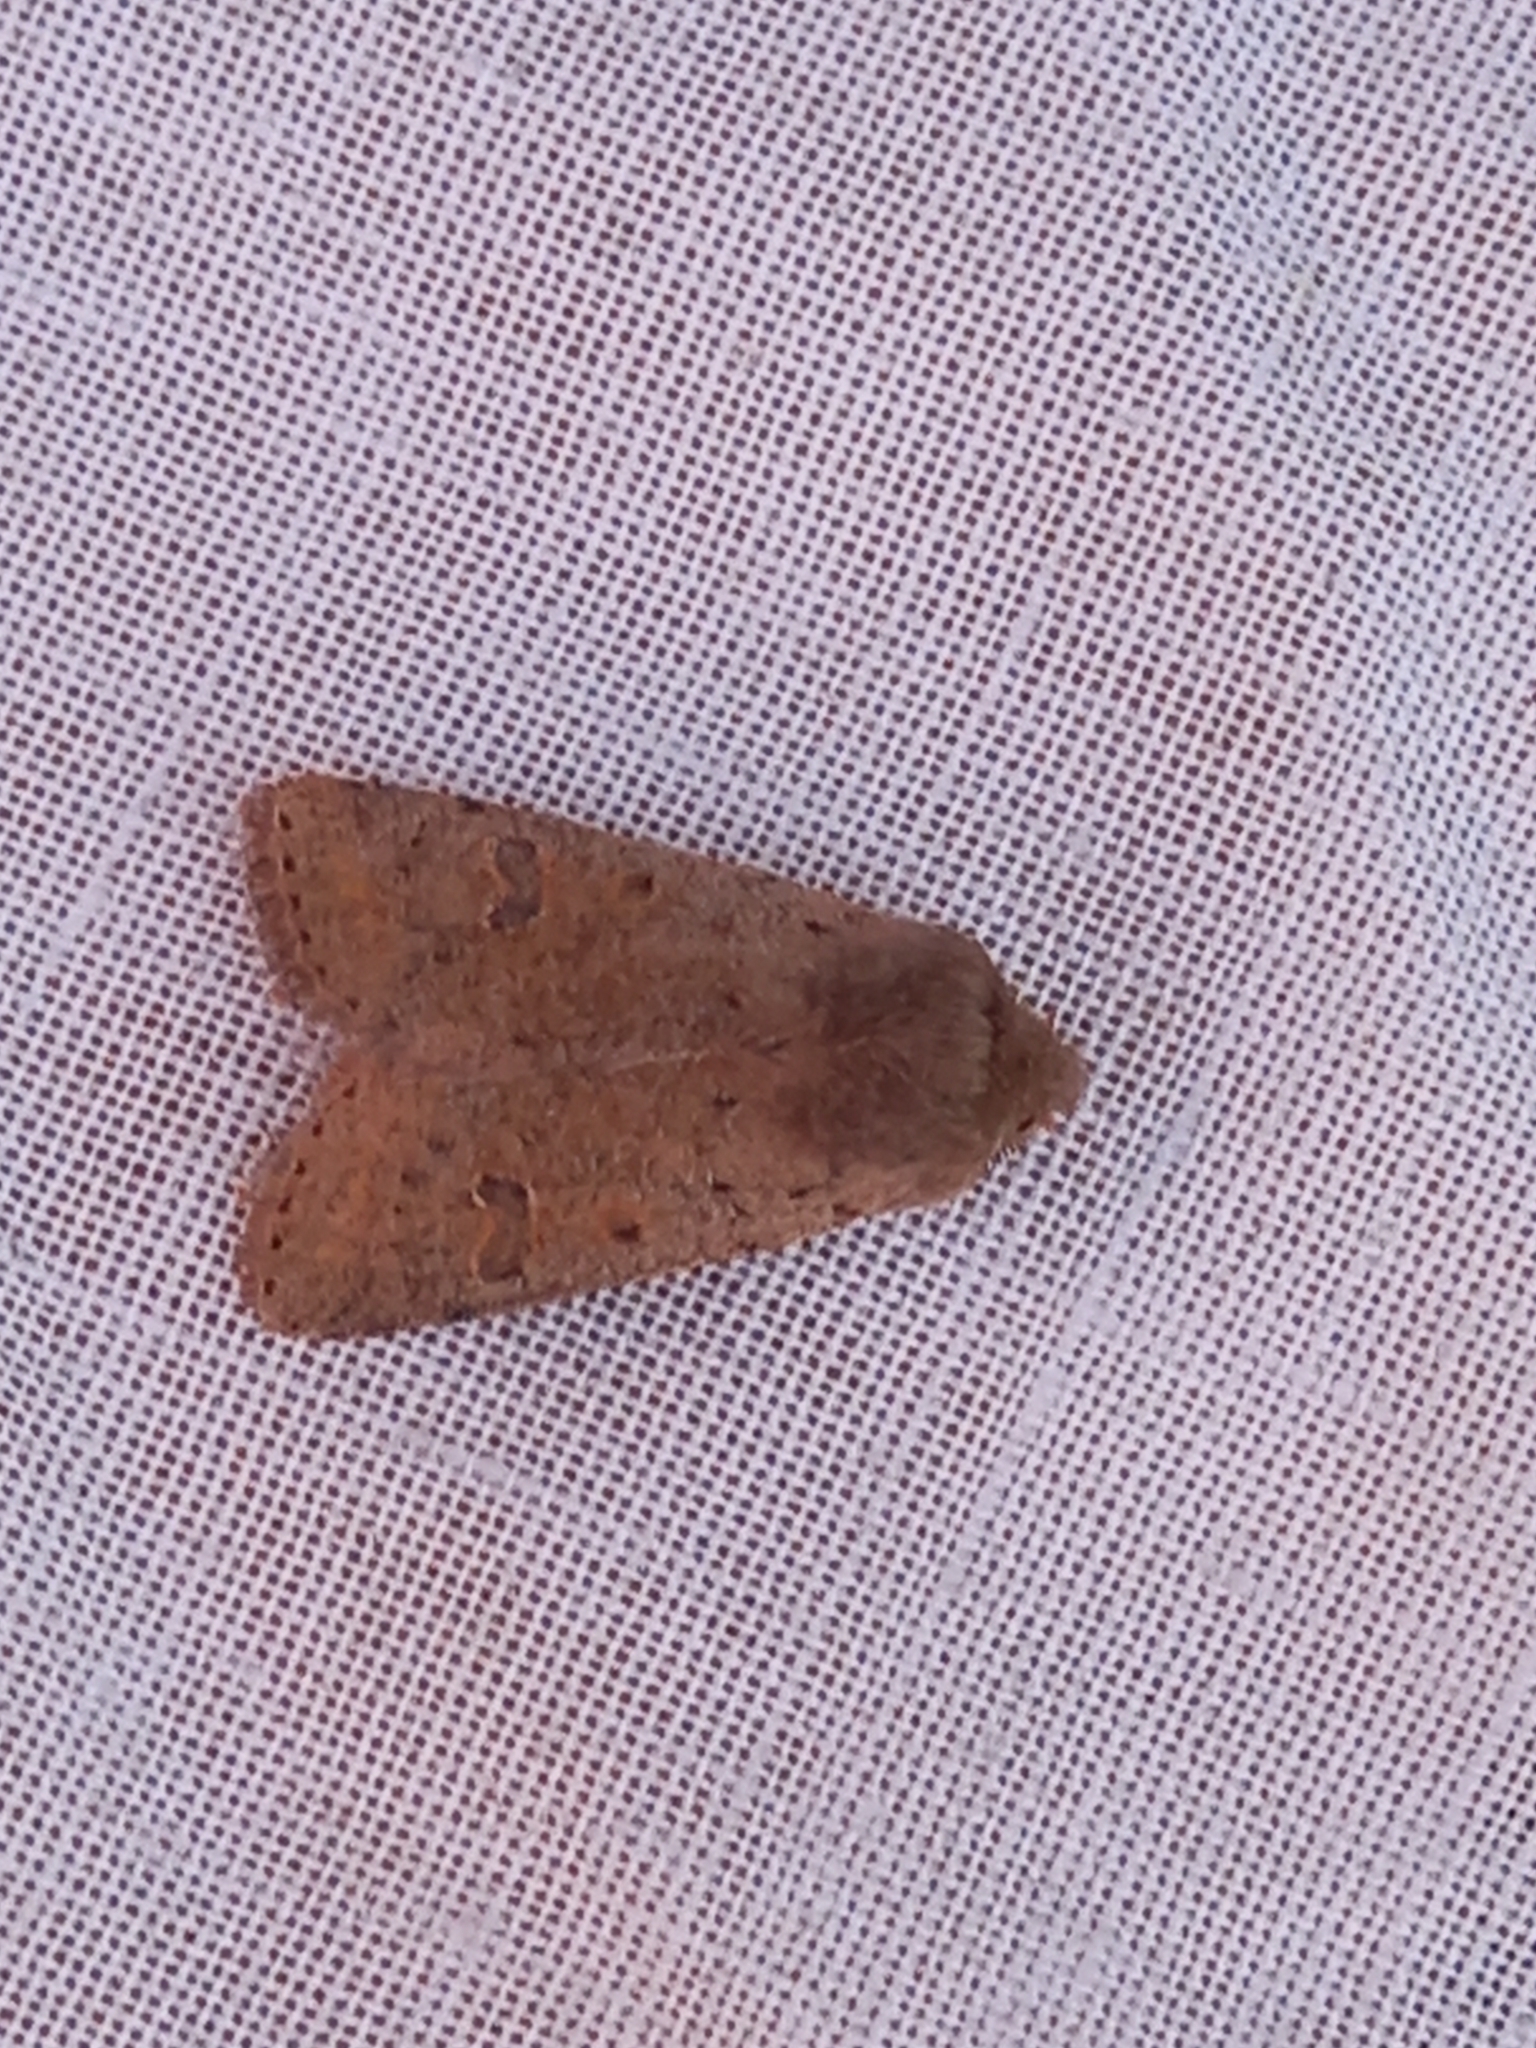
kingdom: Animalia
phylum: Arthropoda
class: Insecta
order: Lepidoptera
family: Noctuidae
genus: Orthosia
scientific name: Orthosia cruda
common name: Small quaker
